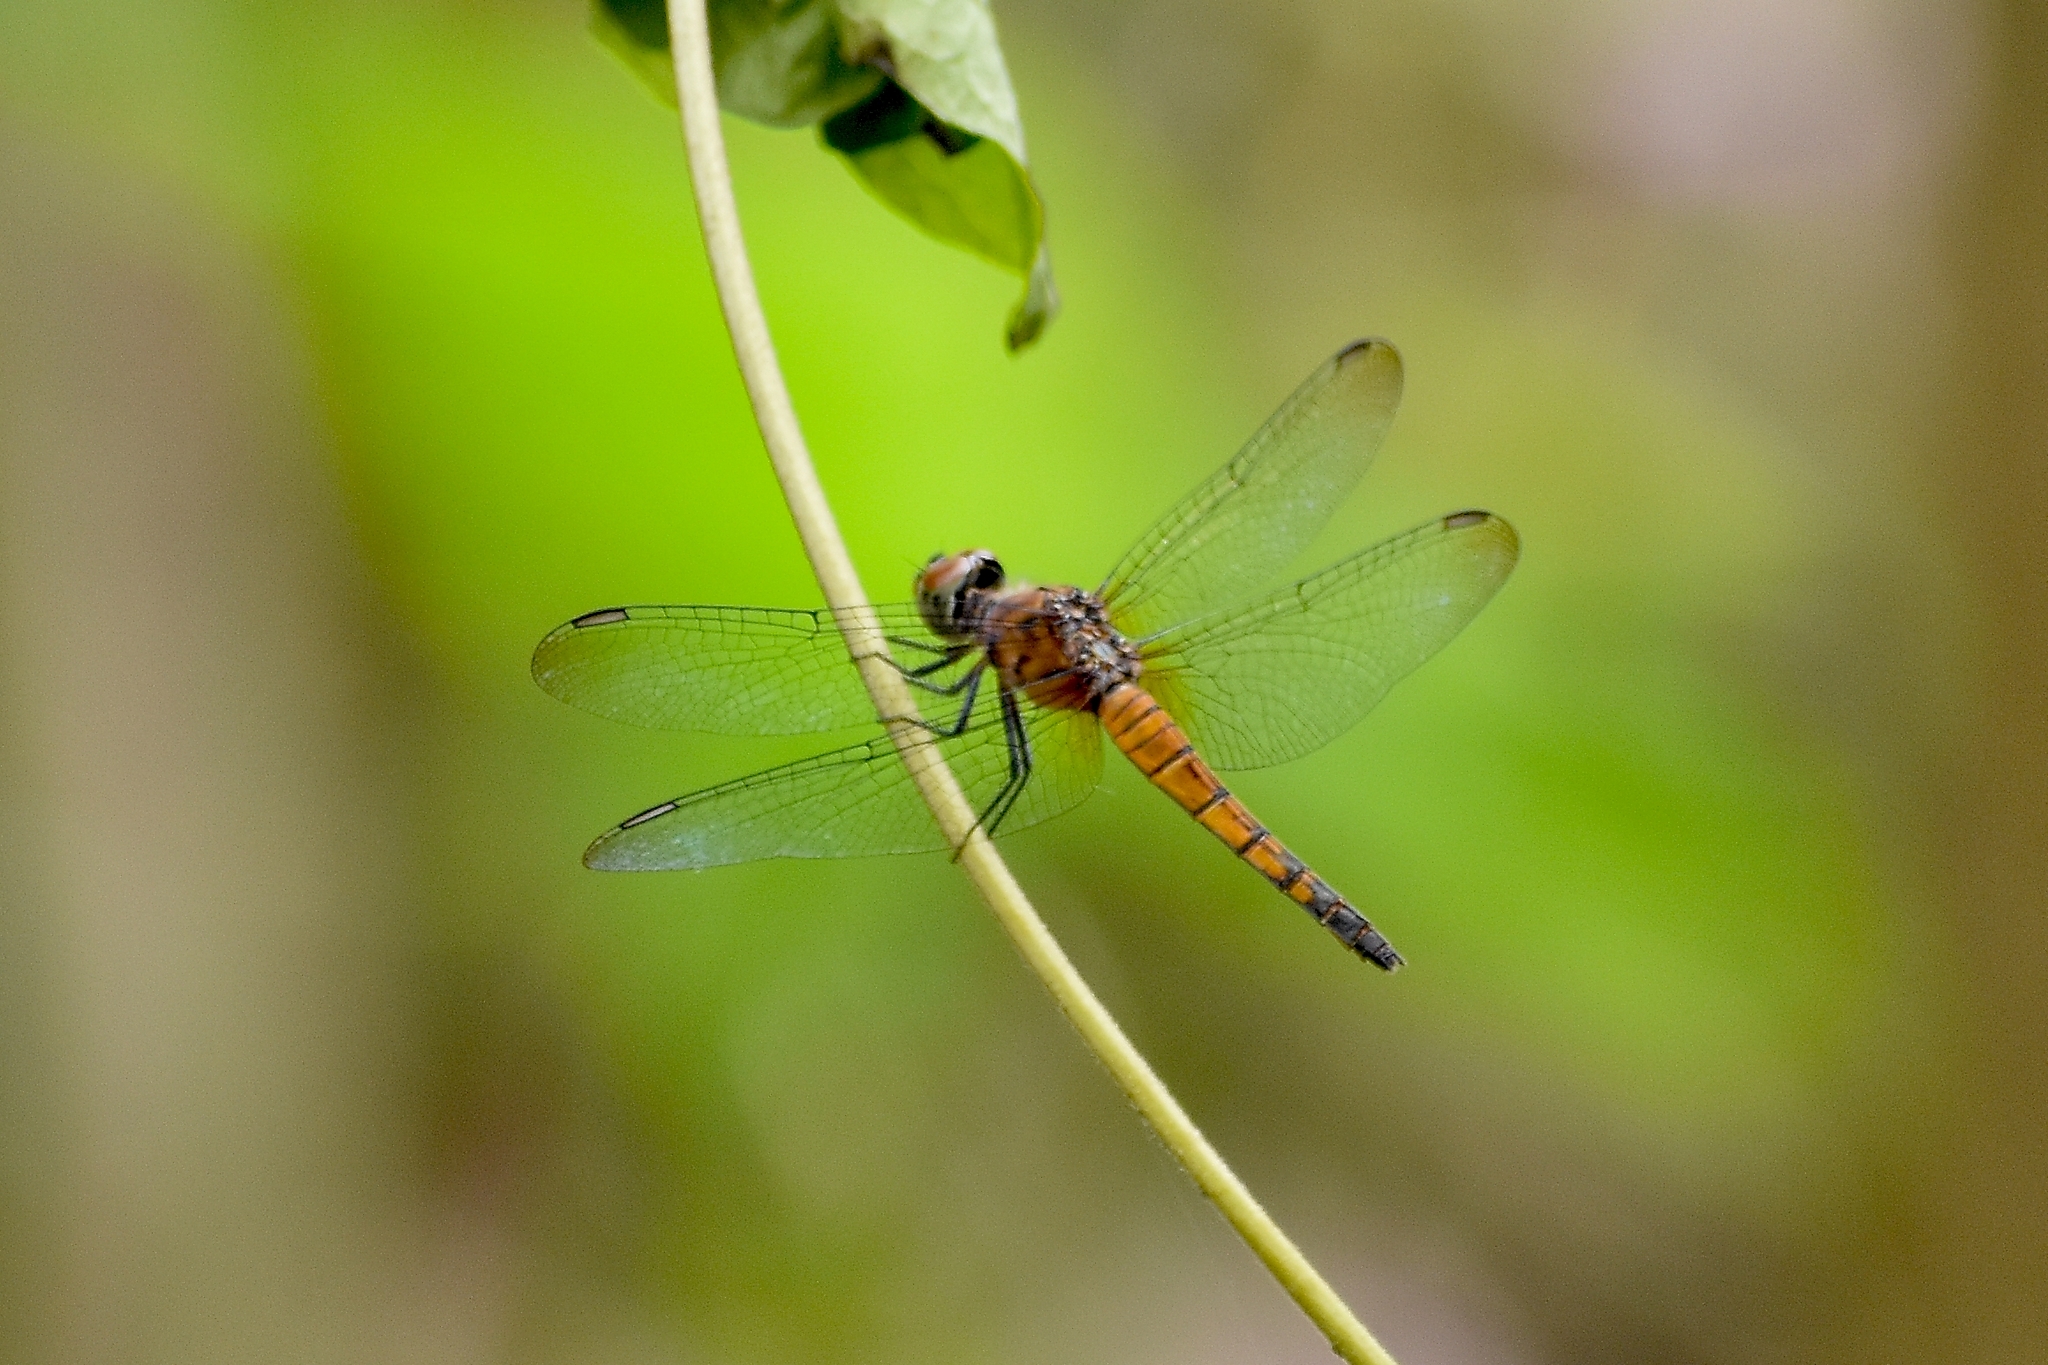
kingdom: Animalia
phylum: Arthropoda
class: Insecta
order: Odonata
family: Libellulidae
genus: Brachydiplax
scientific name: Brachydiplax chalybea
